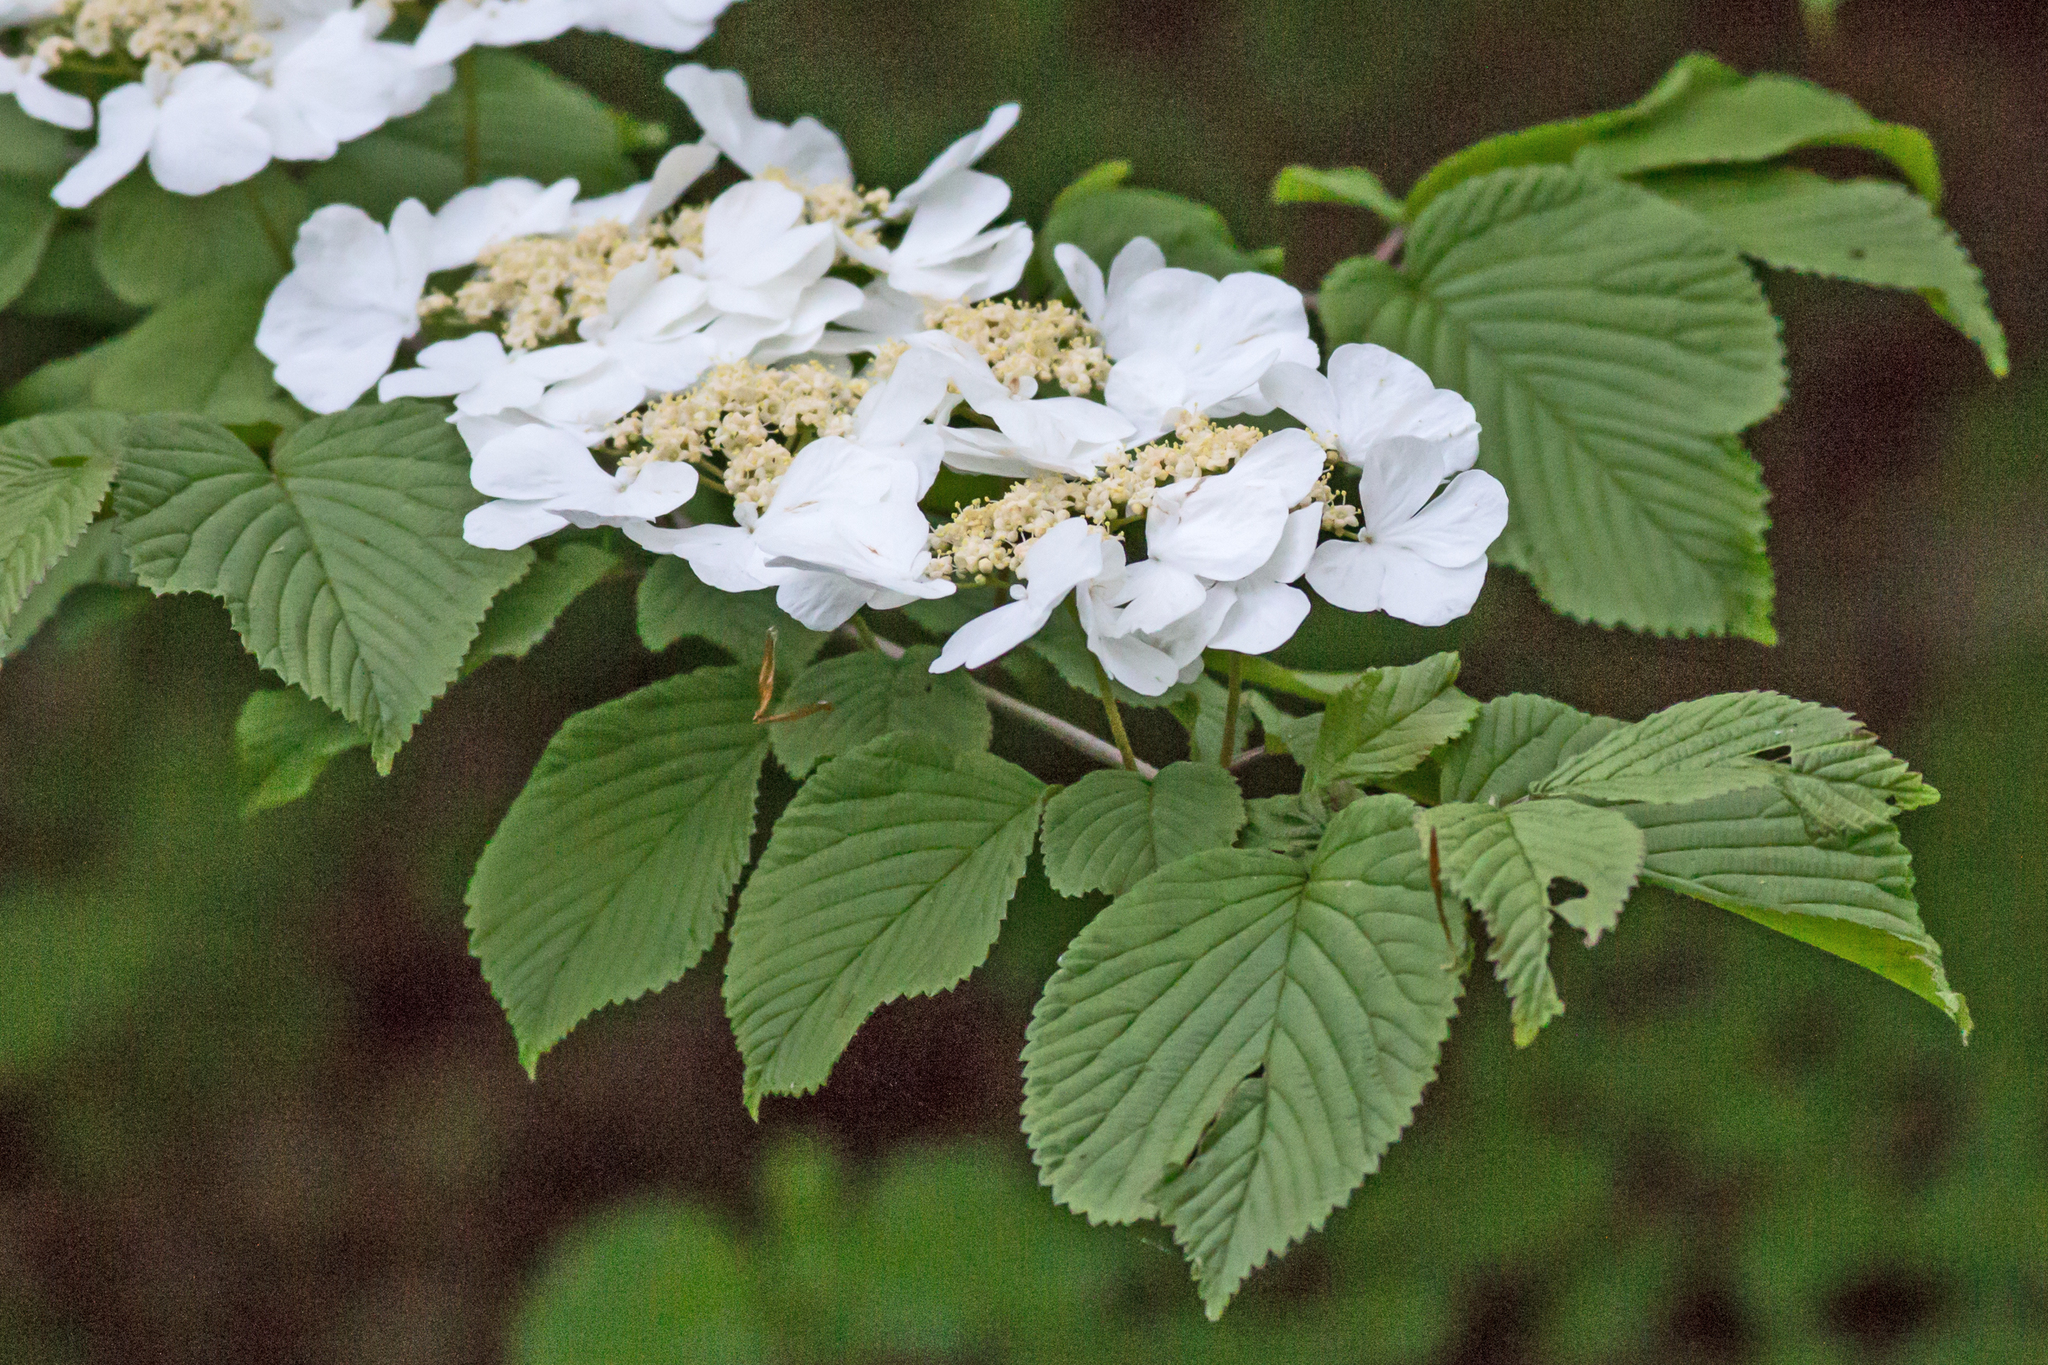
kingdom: Plantae
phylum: Tracheophyta
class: Magnoliopsida
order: Dipsacales
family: Viburnaceae
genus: Viburnum
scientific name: Viburnum plicatum
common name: Japanese snowball
